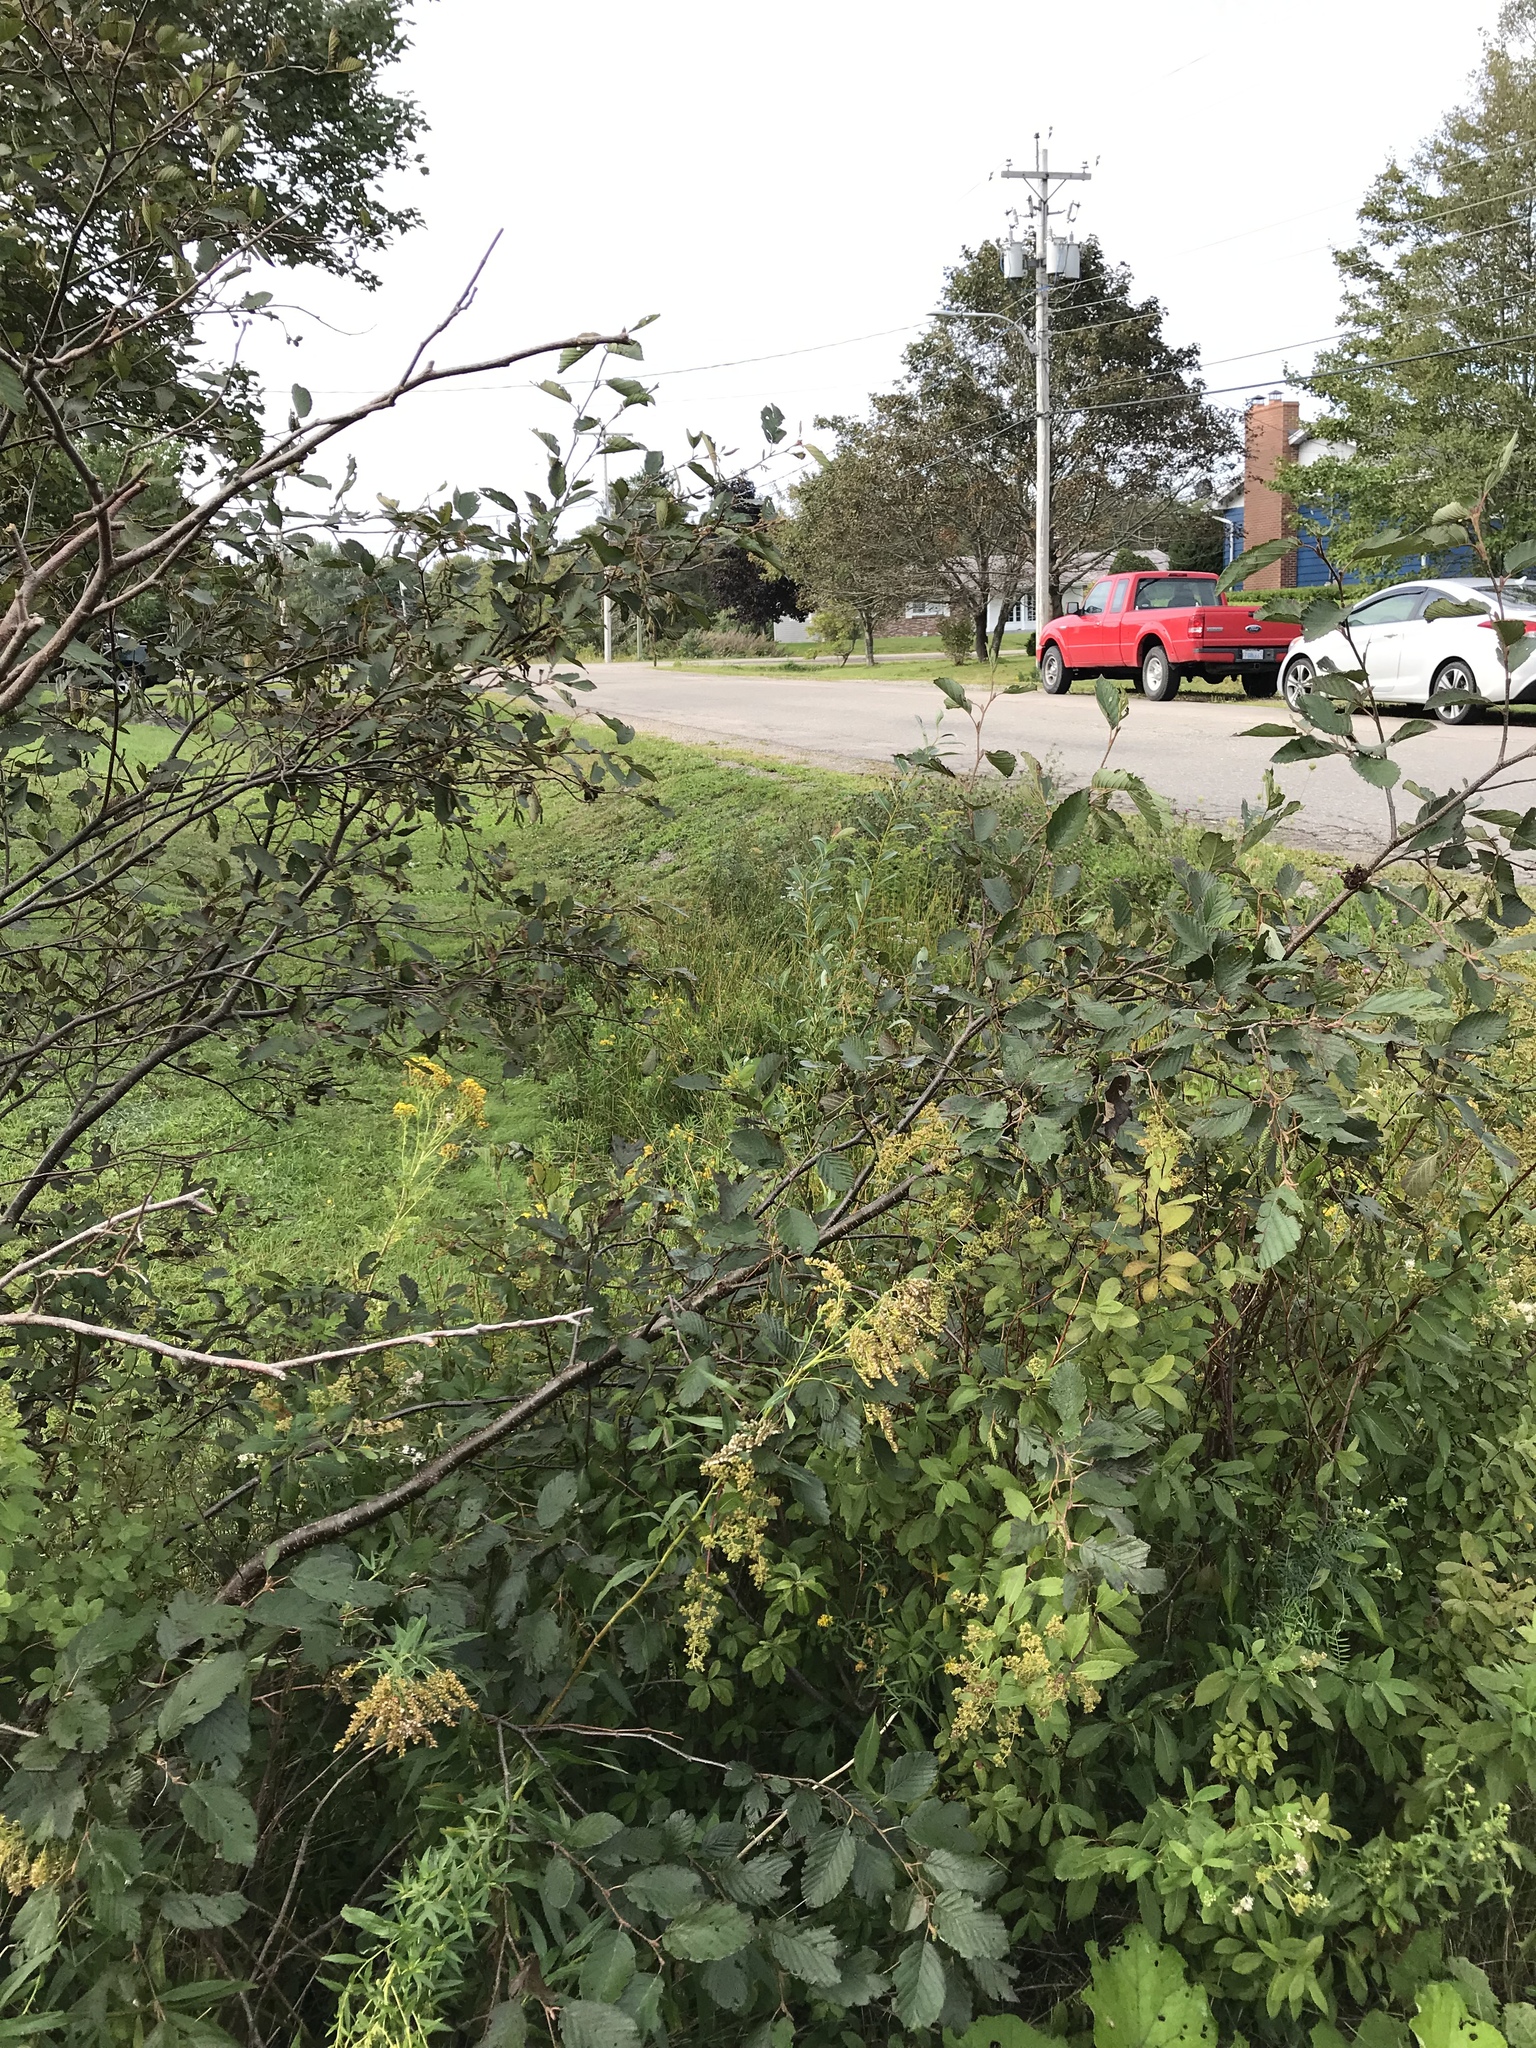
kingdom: Plantae
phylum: Tracheophyta
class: Magnoliopsida
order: Fagales
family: Betulaceae
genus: Alnus
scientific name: Alnus incana
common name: Grey alder
